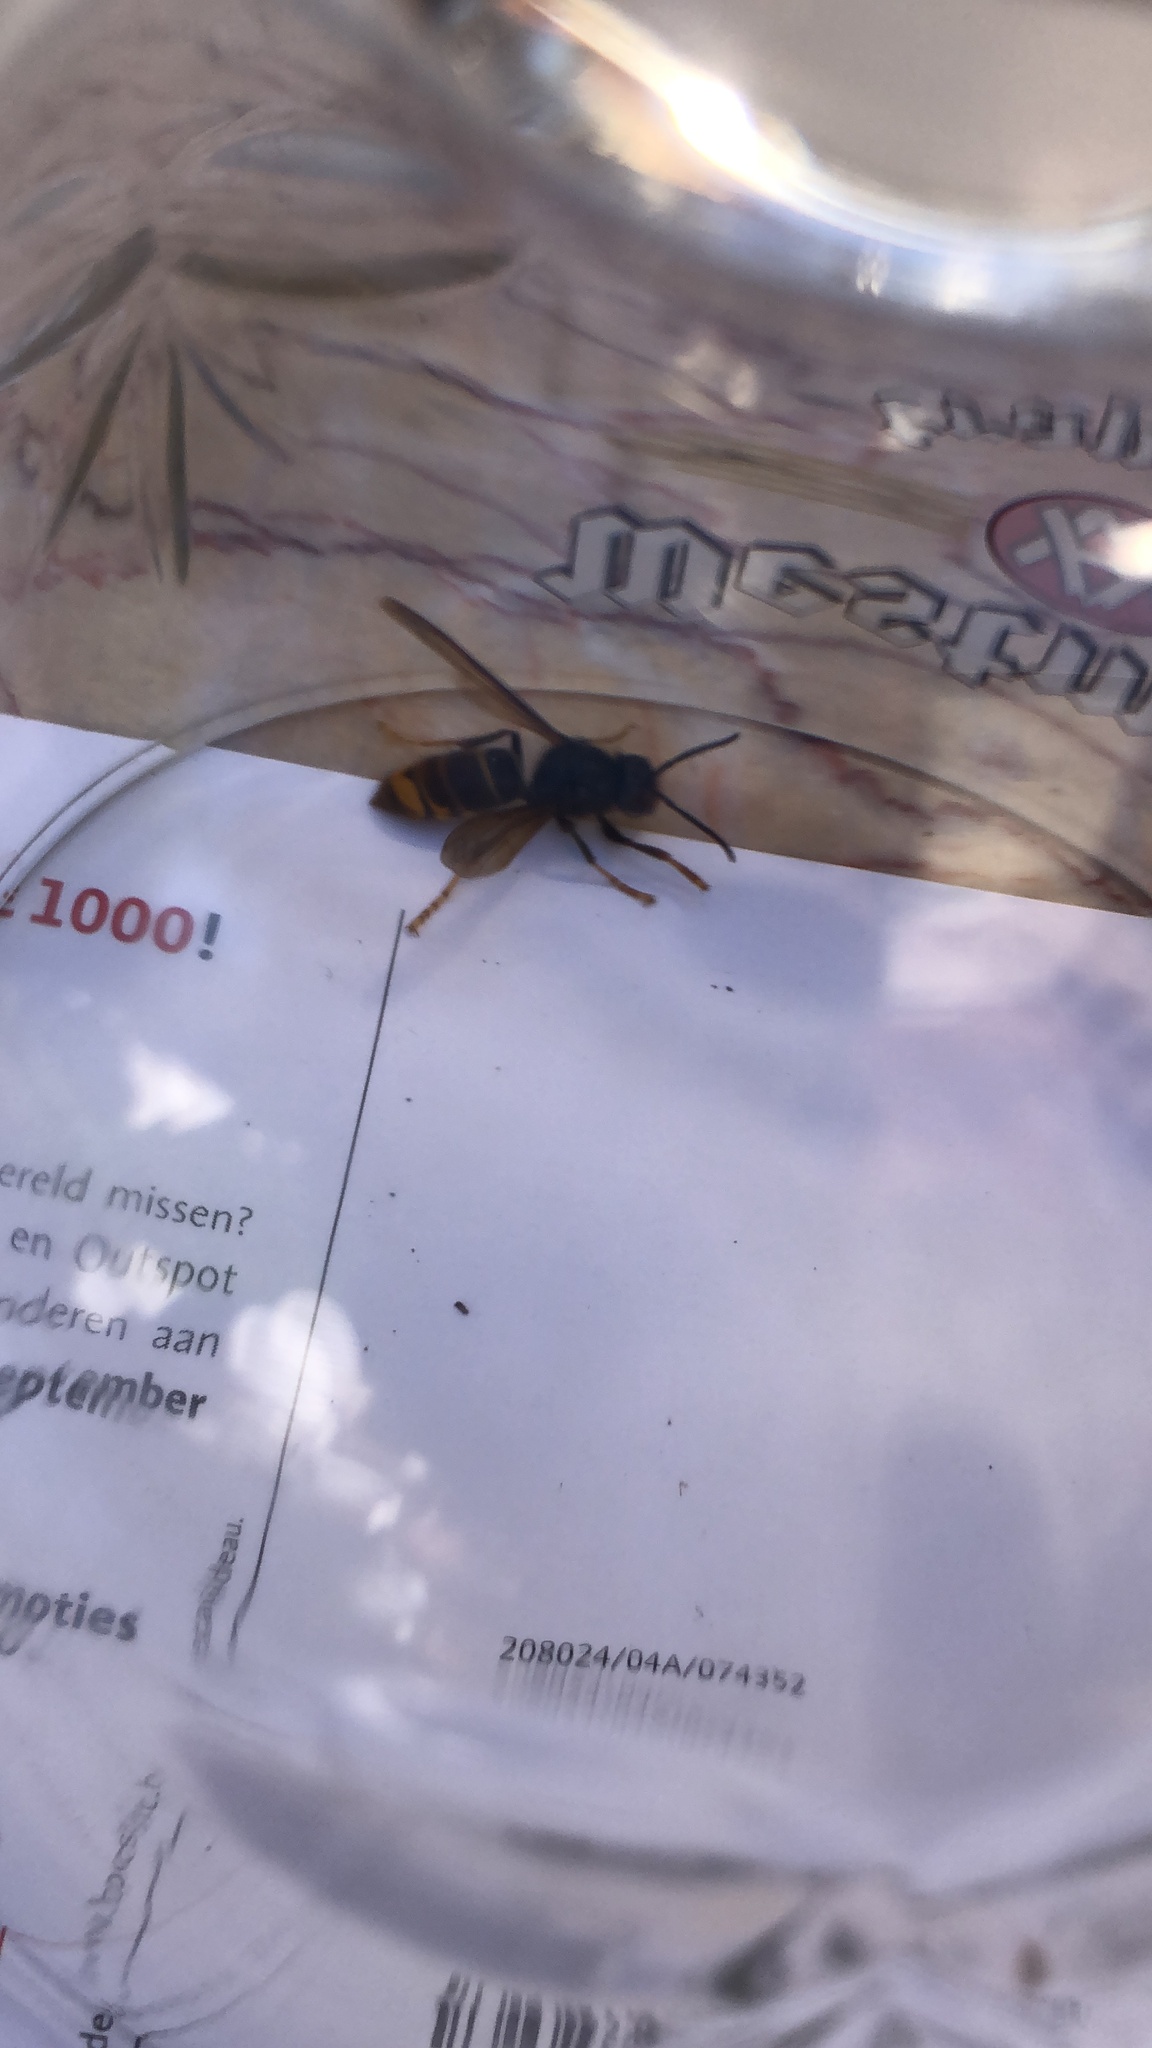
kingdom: Animalia
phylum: Arthropoda
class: Insecta
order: Hymenoptera
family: Vespidae
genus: Vespa
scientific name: Vespa velutina
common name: Asian hornet
